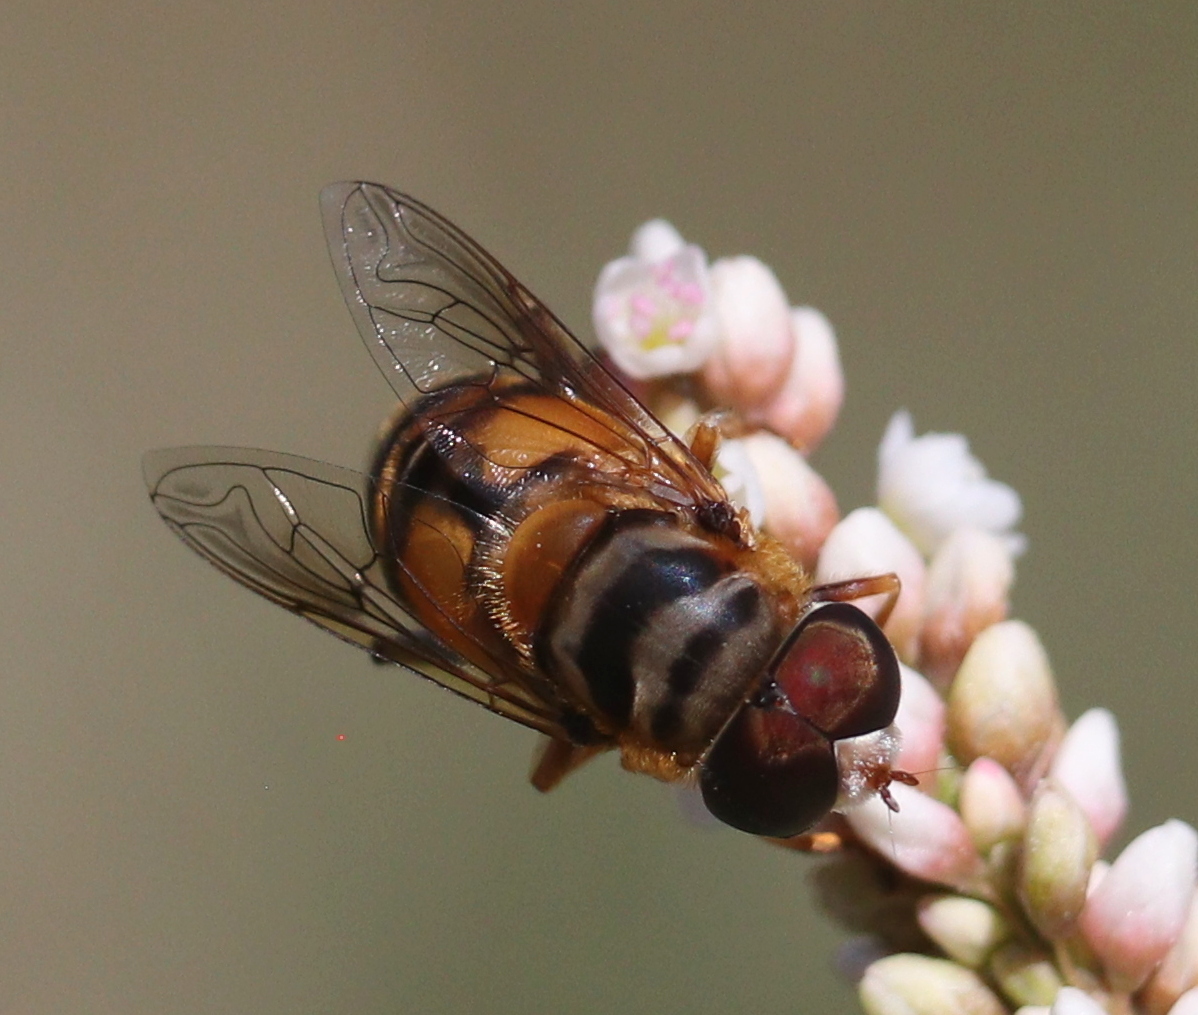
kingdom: Animalia
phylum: Arthropoda
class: Insecta
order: Diptera
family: Syrphidae
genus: Palpada
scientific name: Palpada vinetorum
